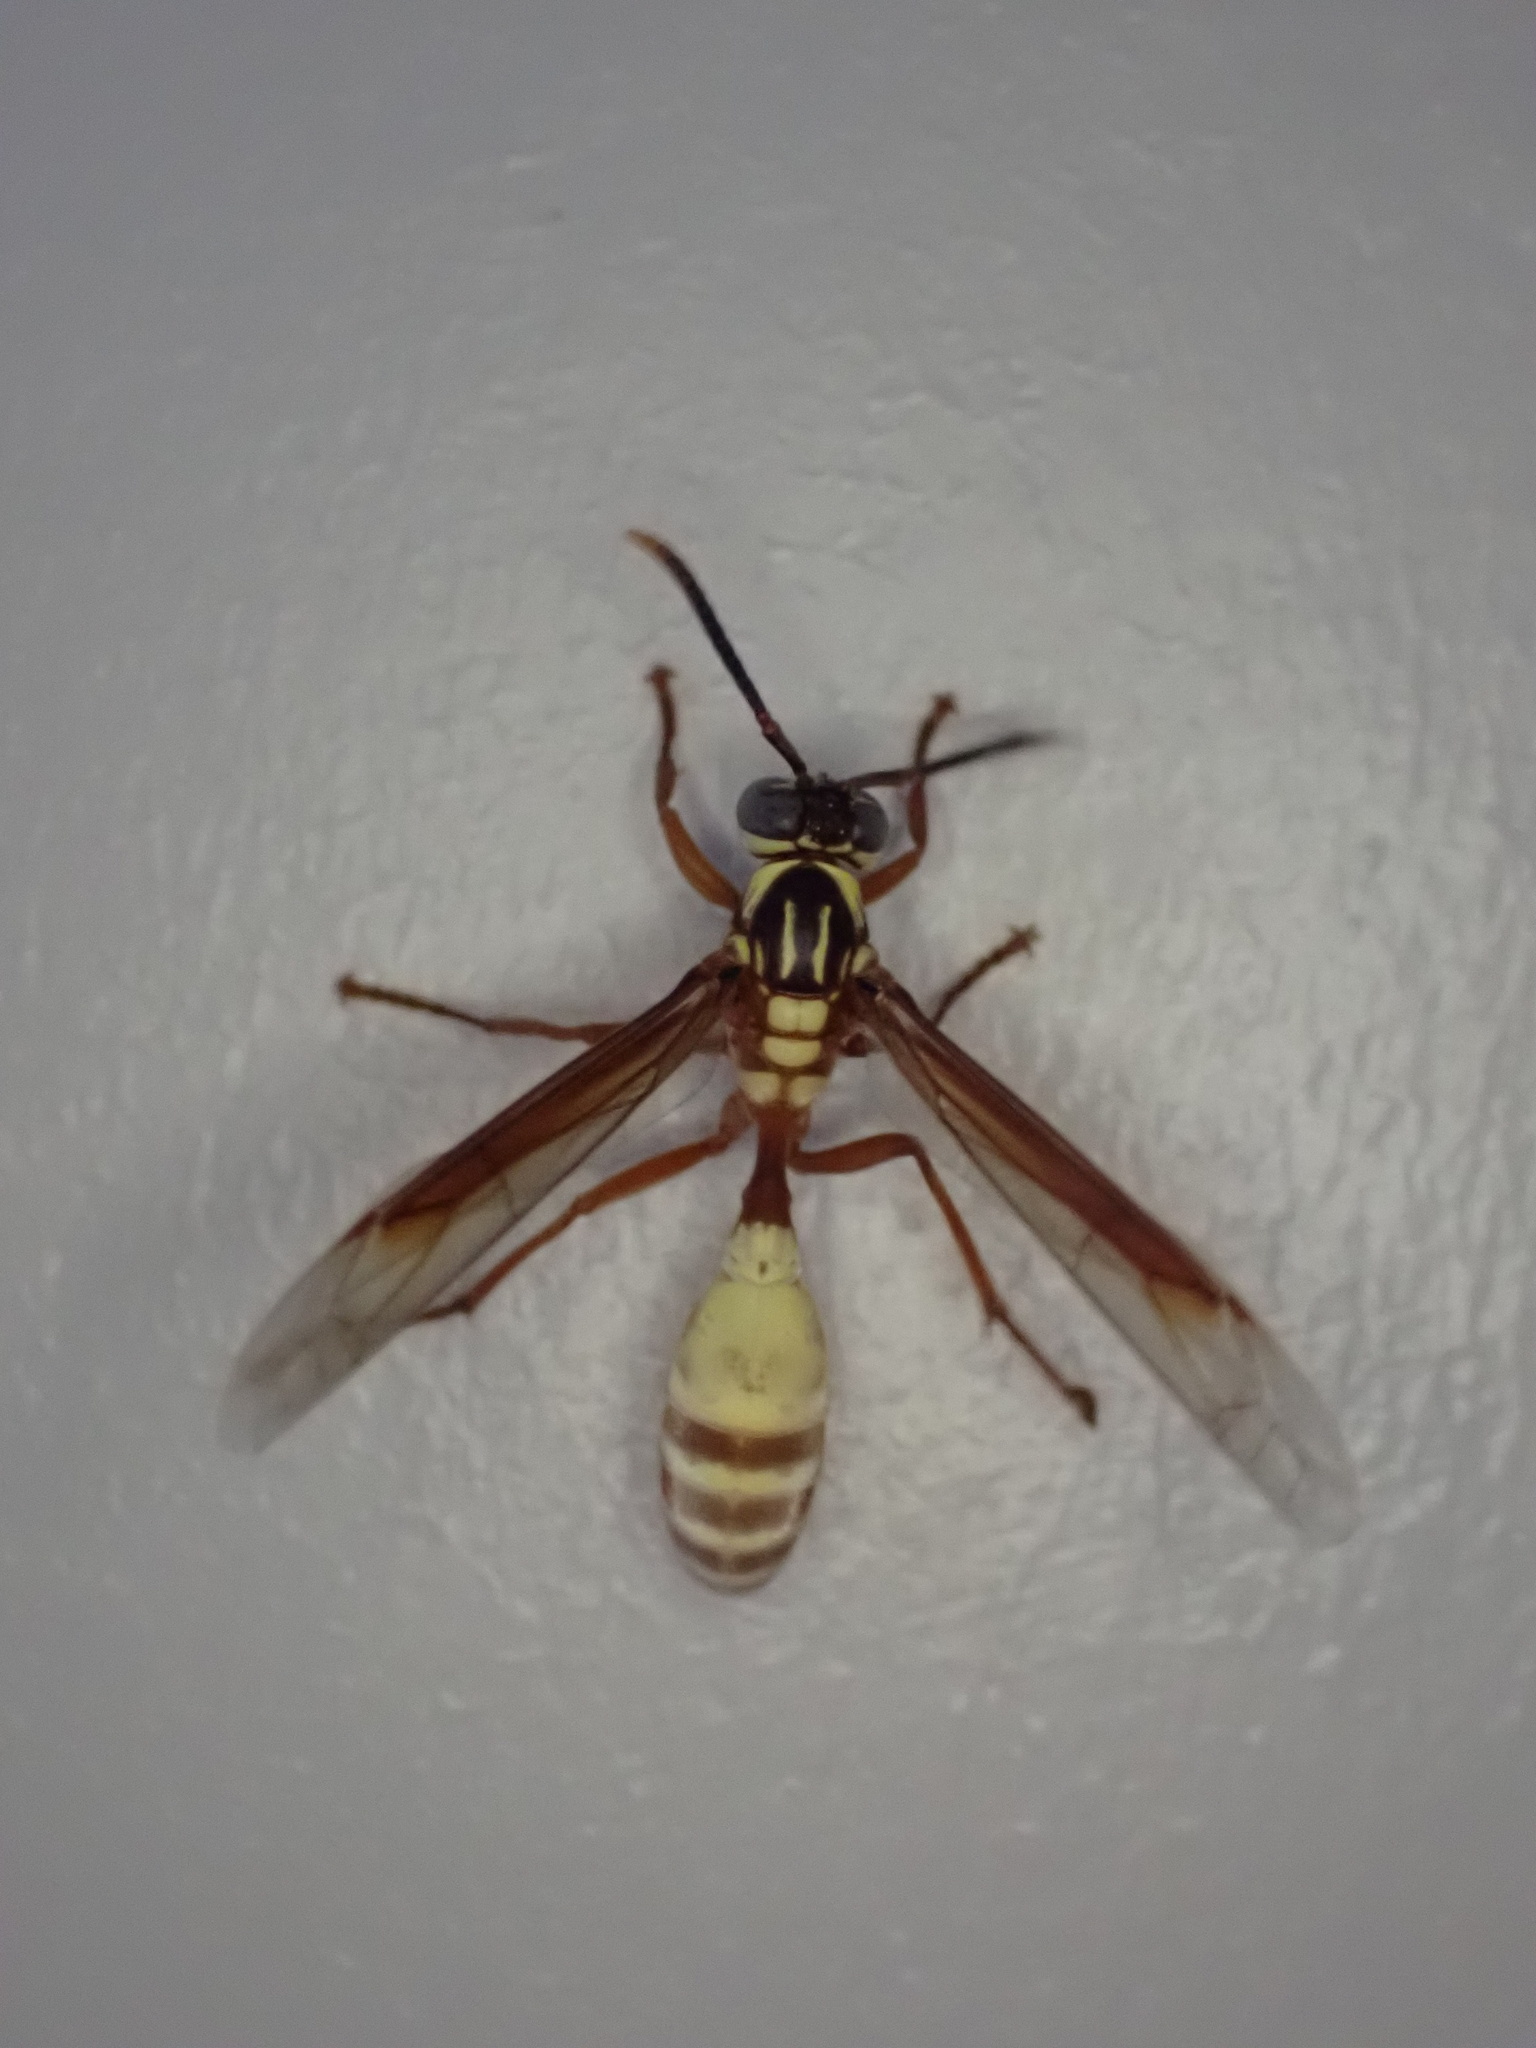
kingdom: Animalia
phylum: Arthropoda
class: Insecta
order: Hymenoptera
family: Vespidae
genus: Apoica
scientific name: Apoica pallens
